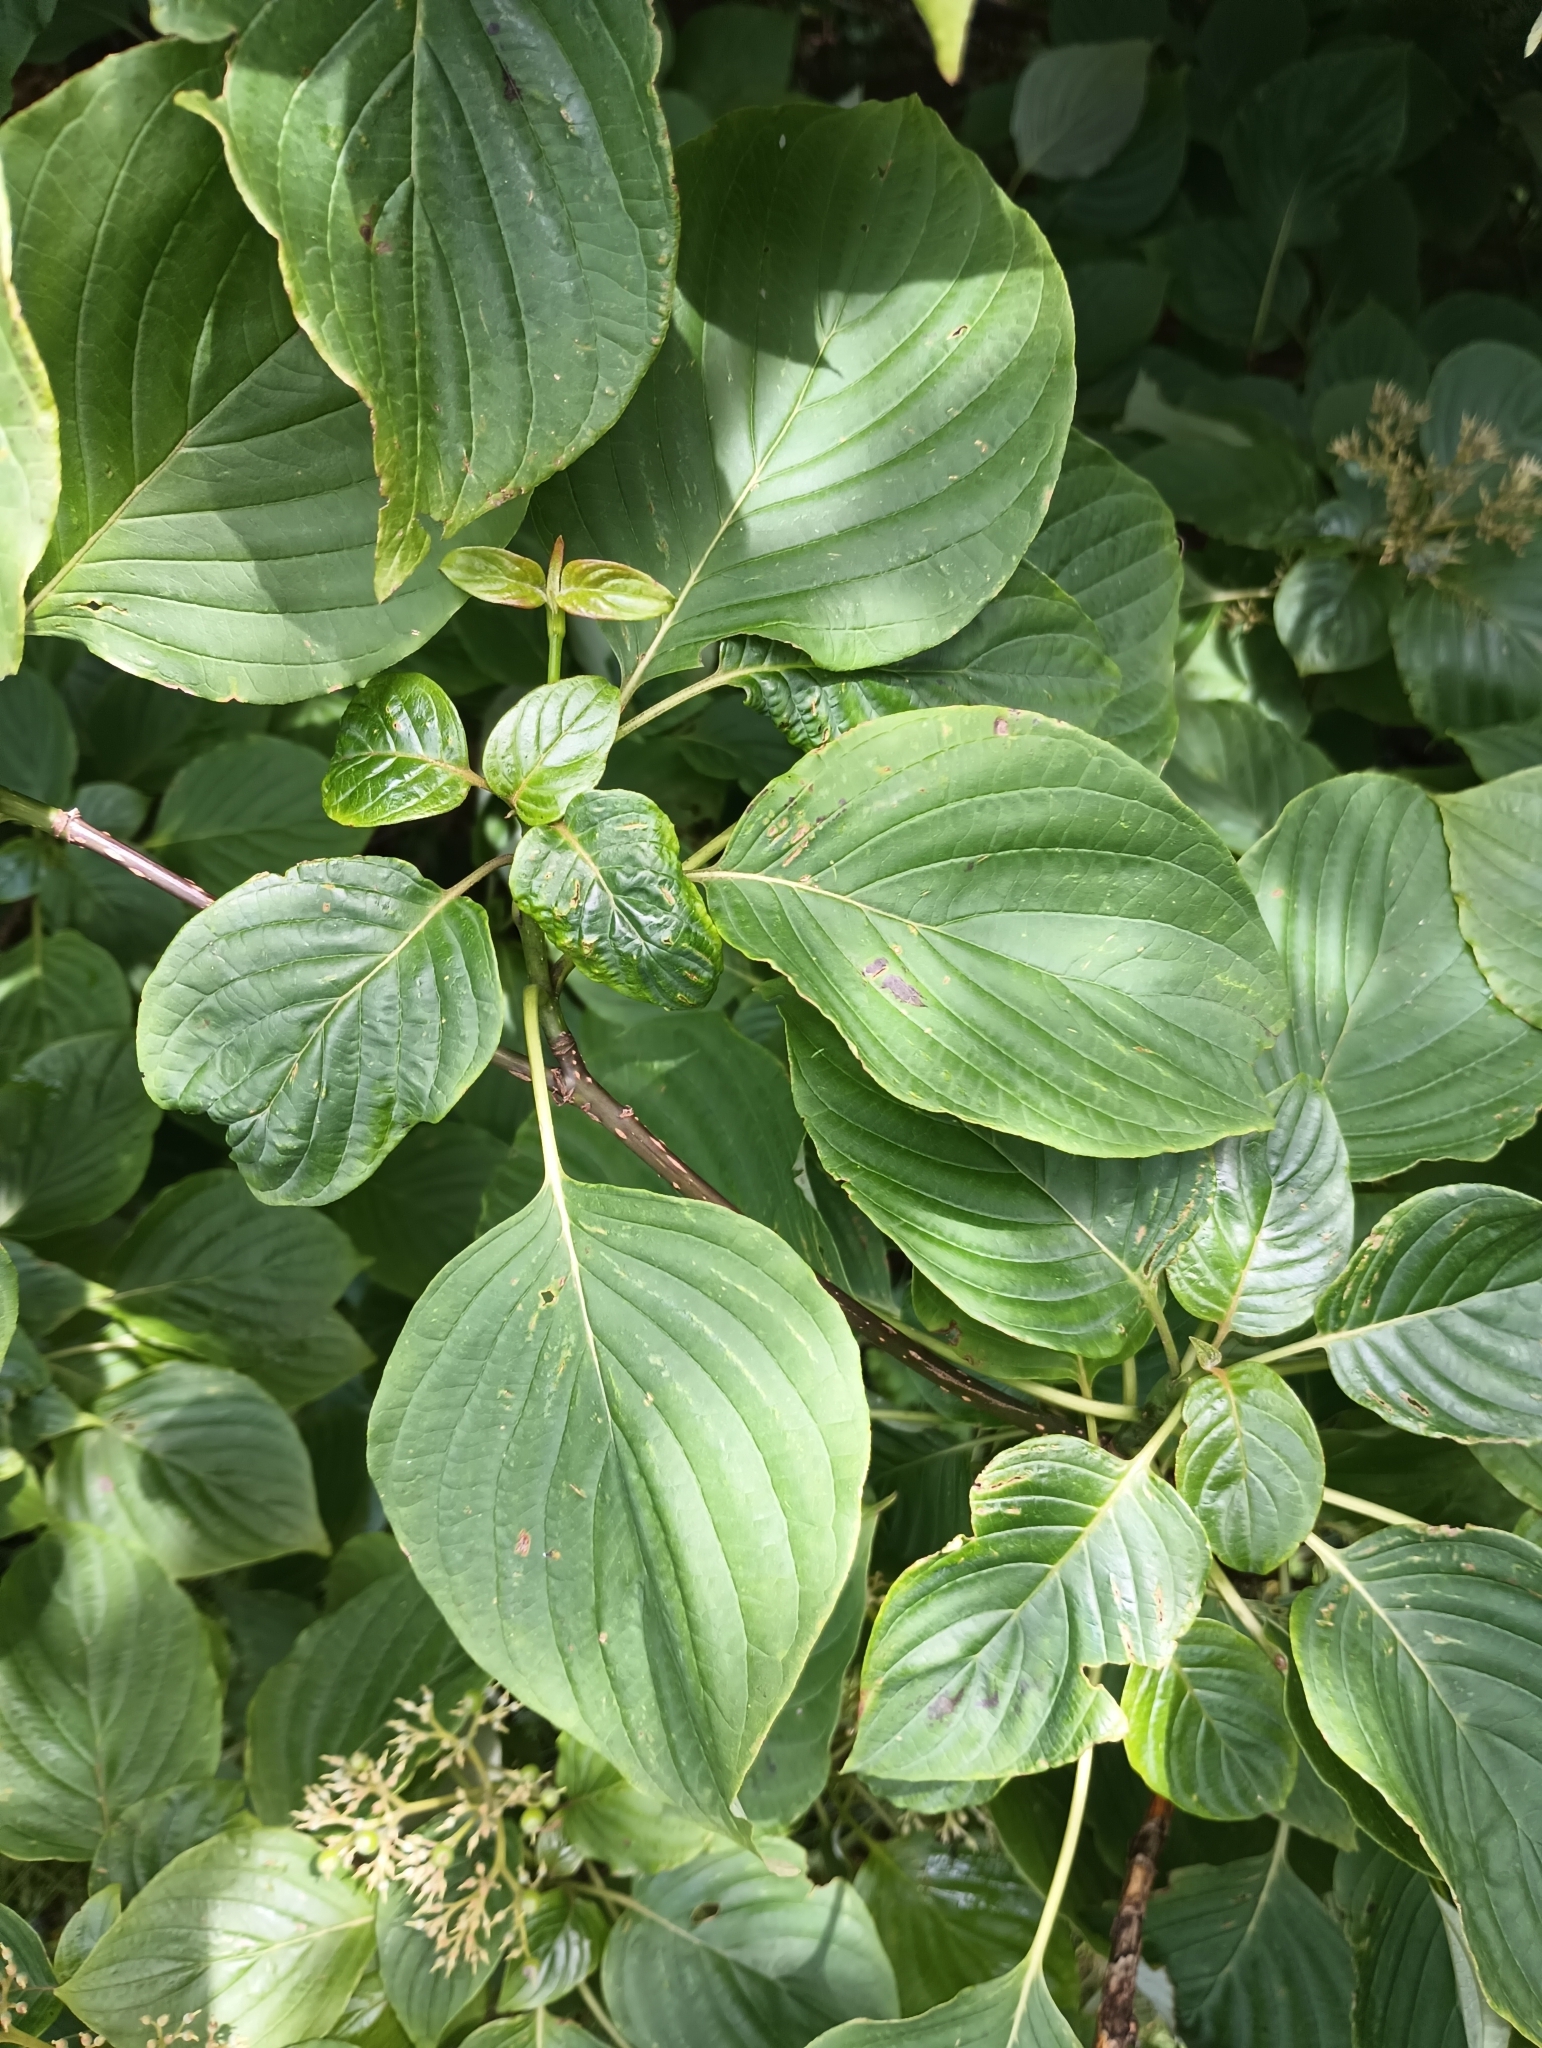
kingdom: Plantae
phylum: Tracheophyta
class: Magnoliopsida
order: Cornales
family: Cornaceae
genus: Cornus
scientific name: Cornus alternifolia
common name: Pagoda dogwood
